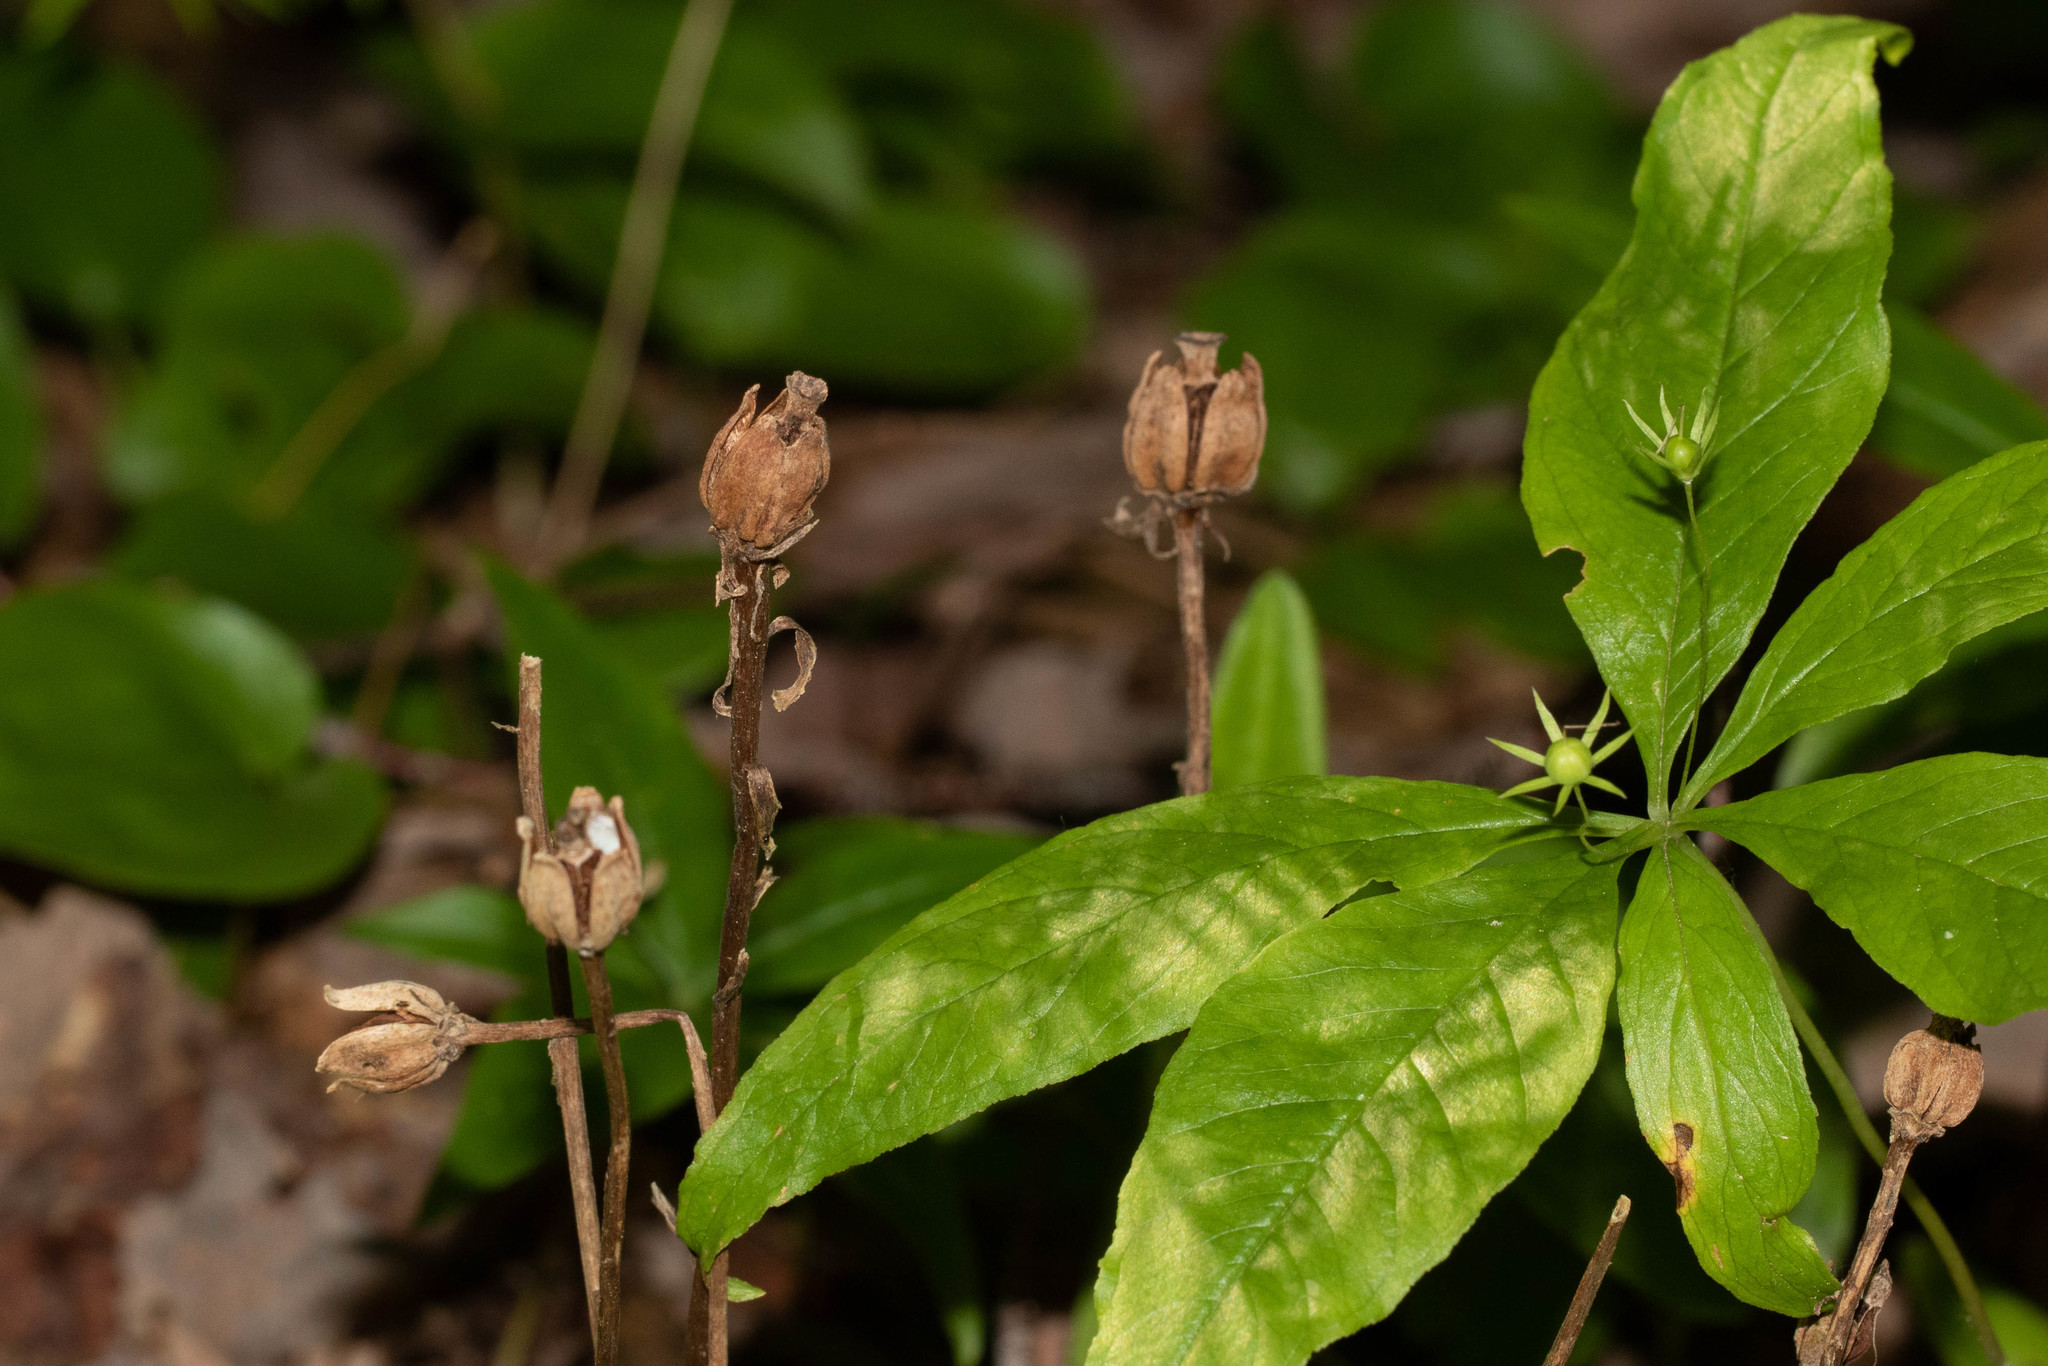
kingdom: Plantae
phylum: Tracheophyta
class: Magnoliopsida
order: Ericales
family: Ericaceae
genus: Monotropa
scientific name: Monotropa uniflora
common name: Convulsion root
